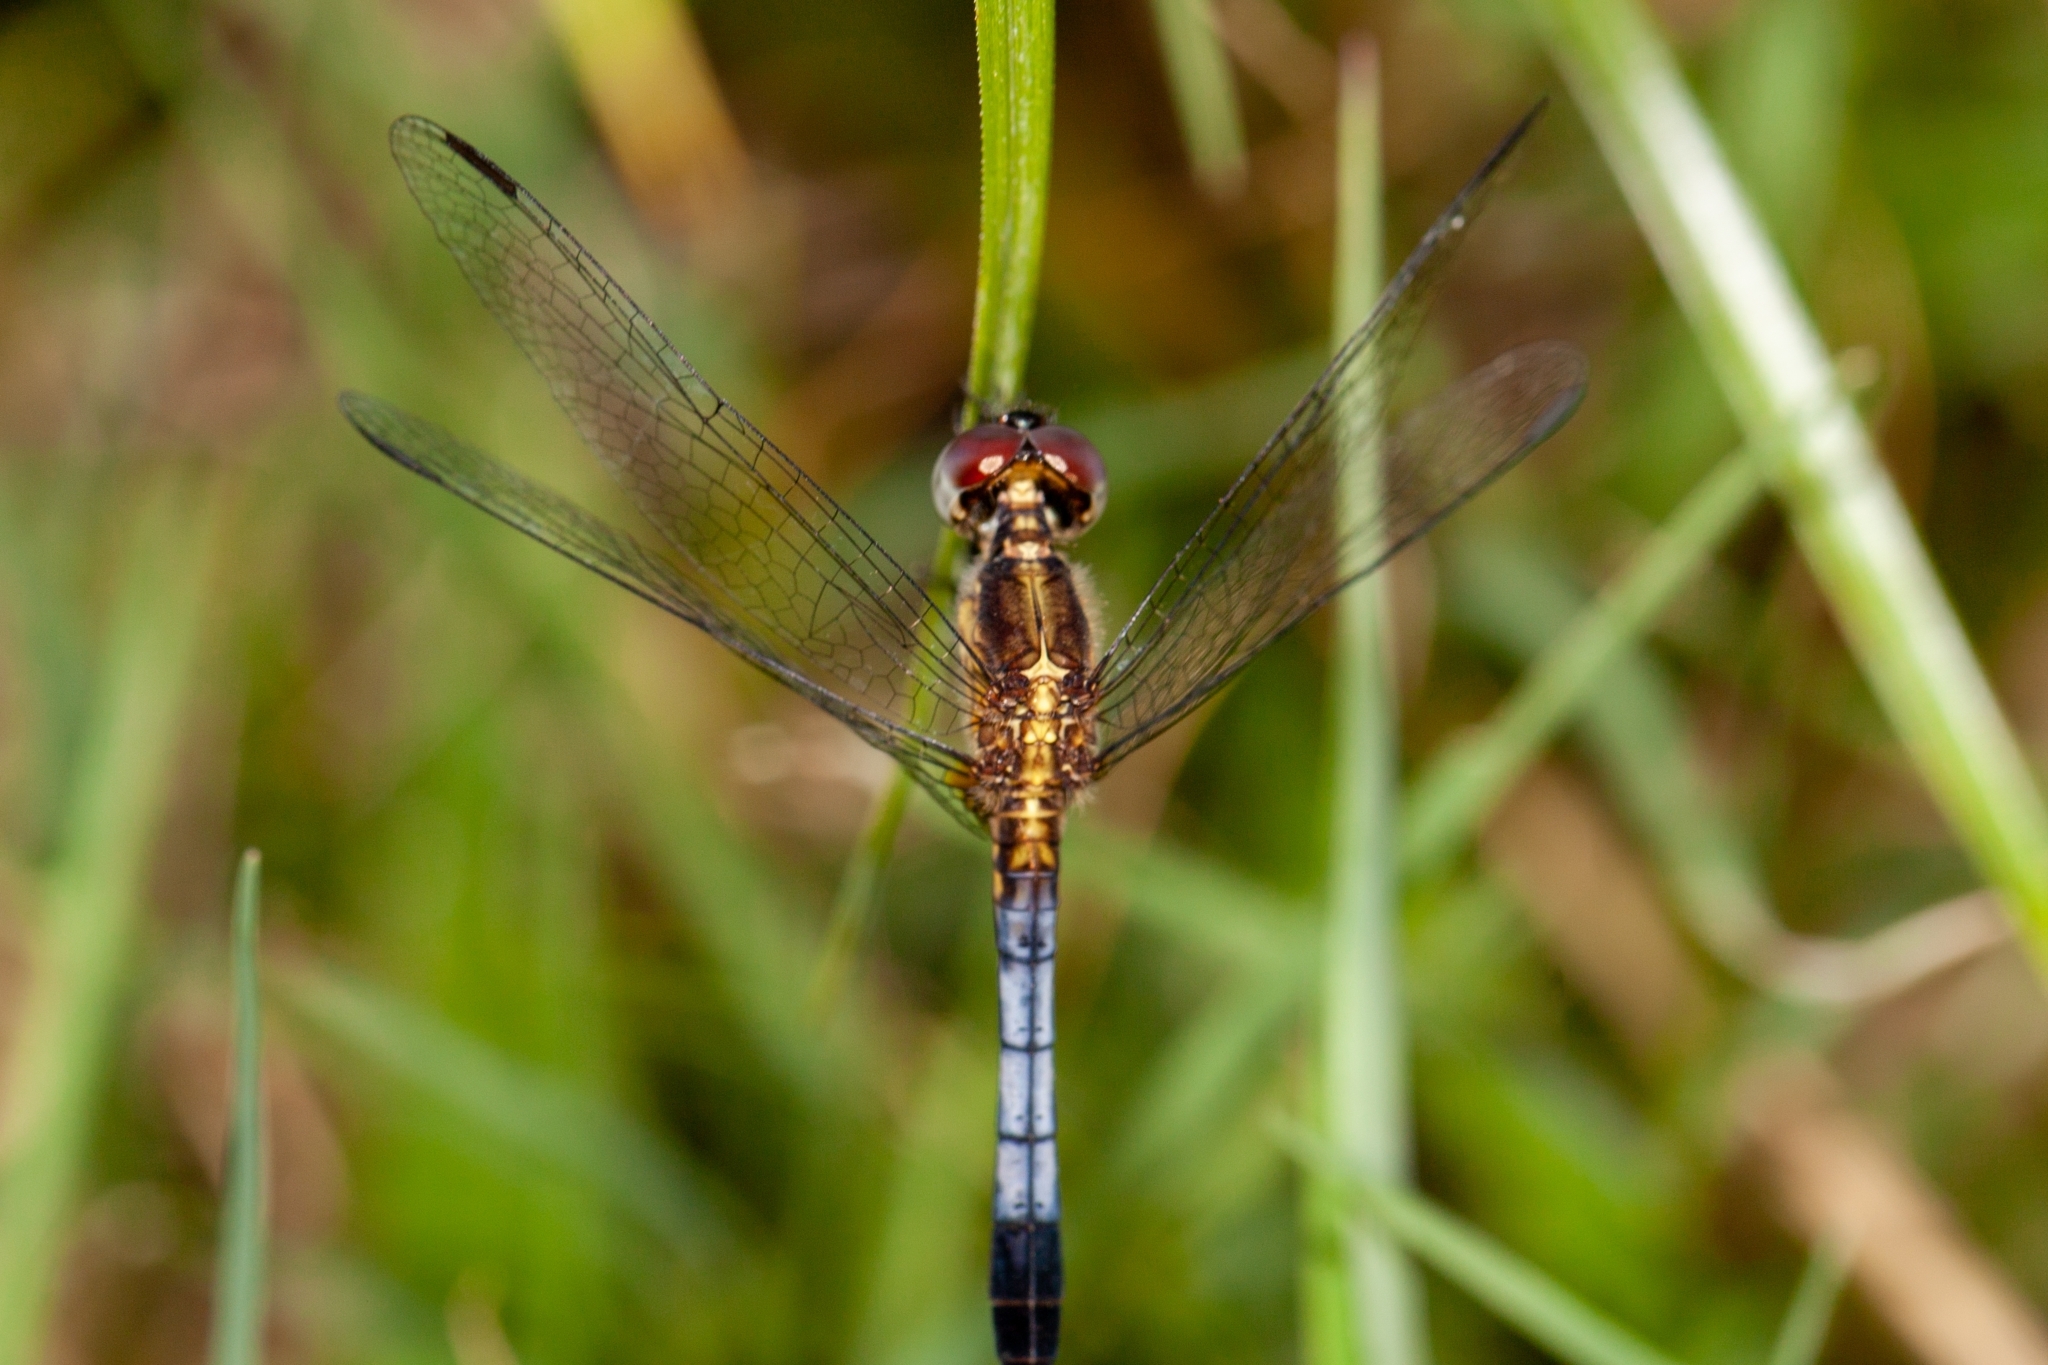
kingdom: Animalia
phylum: Arthropoda
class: Insecta
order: Odonata
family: Libellulidae
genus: Erythrodiplax
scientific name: Erythrodiplax minuscula
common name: Little blue dragonlet
